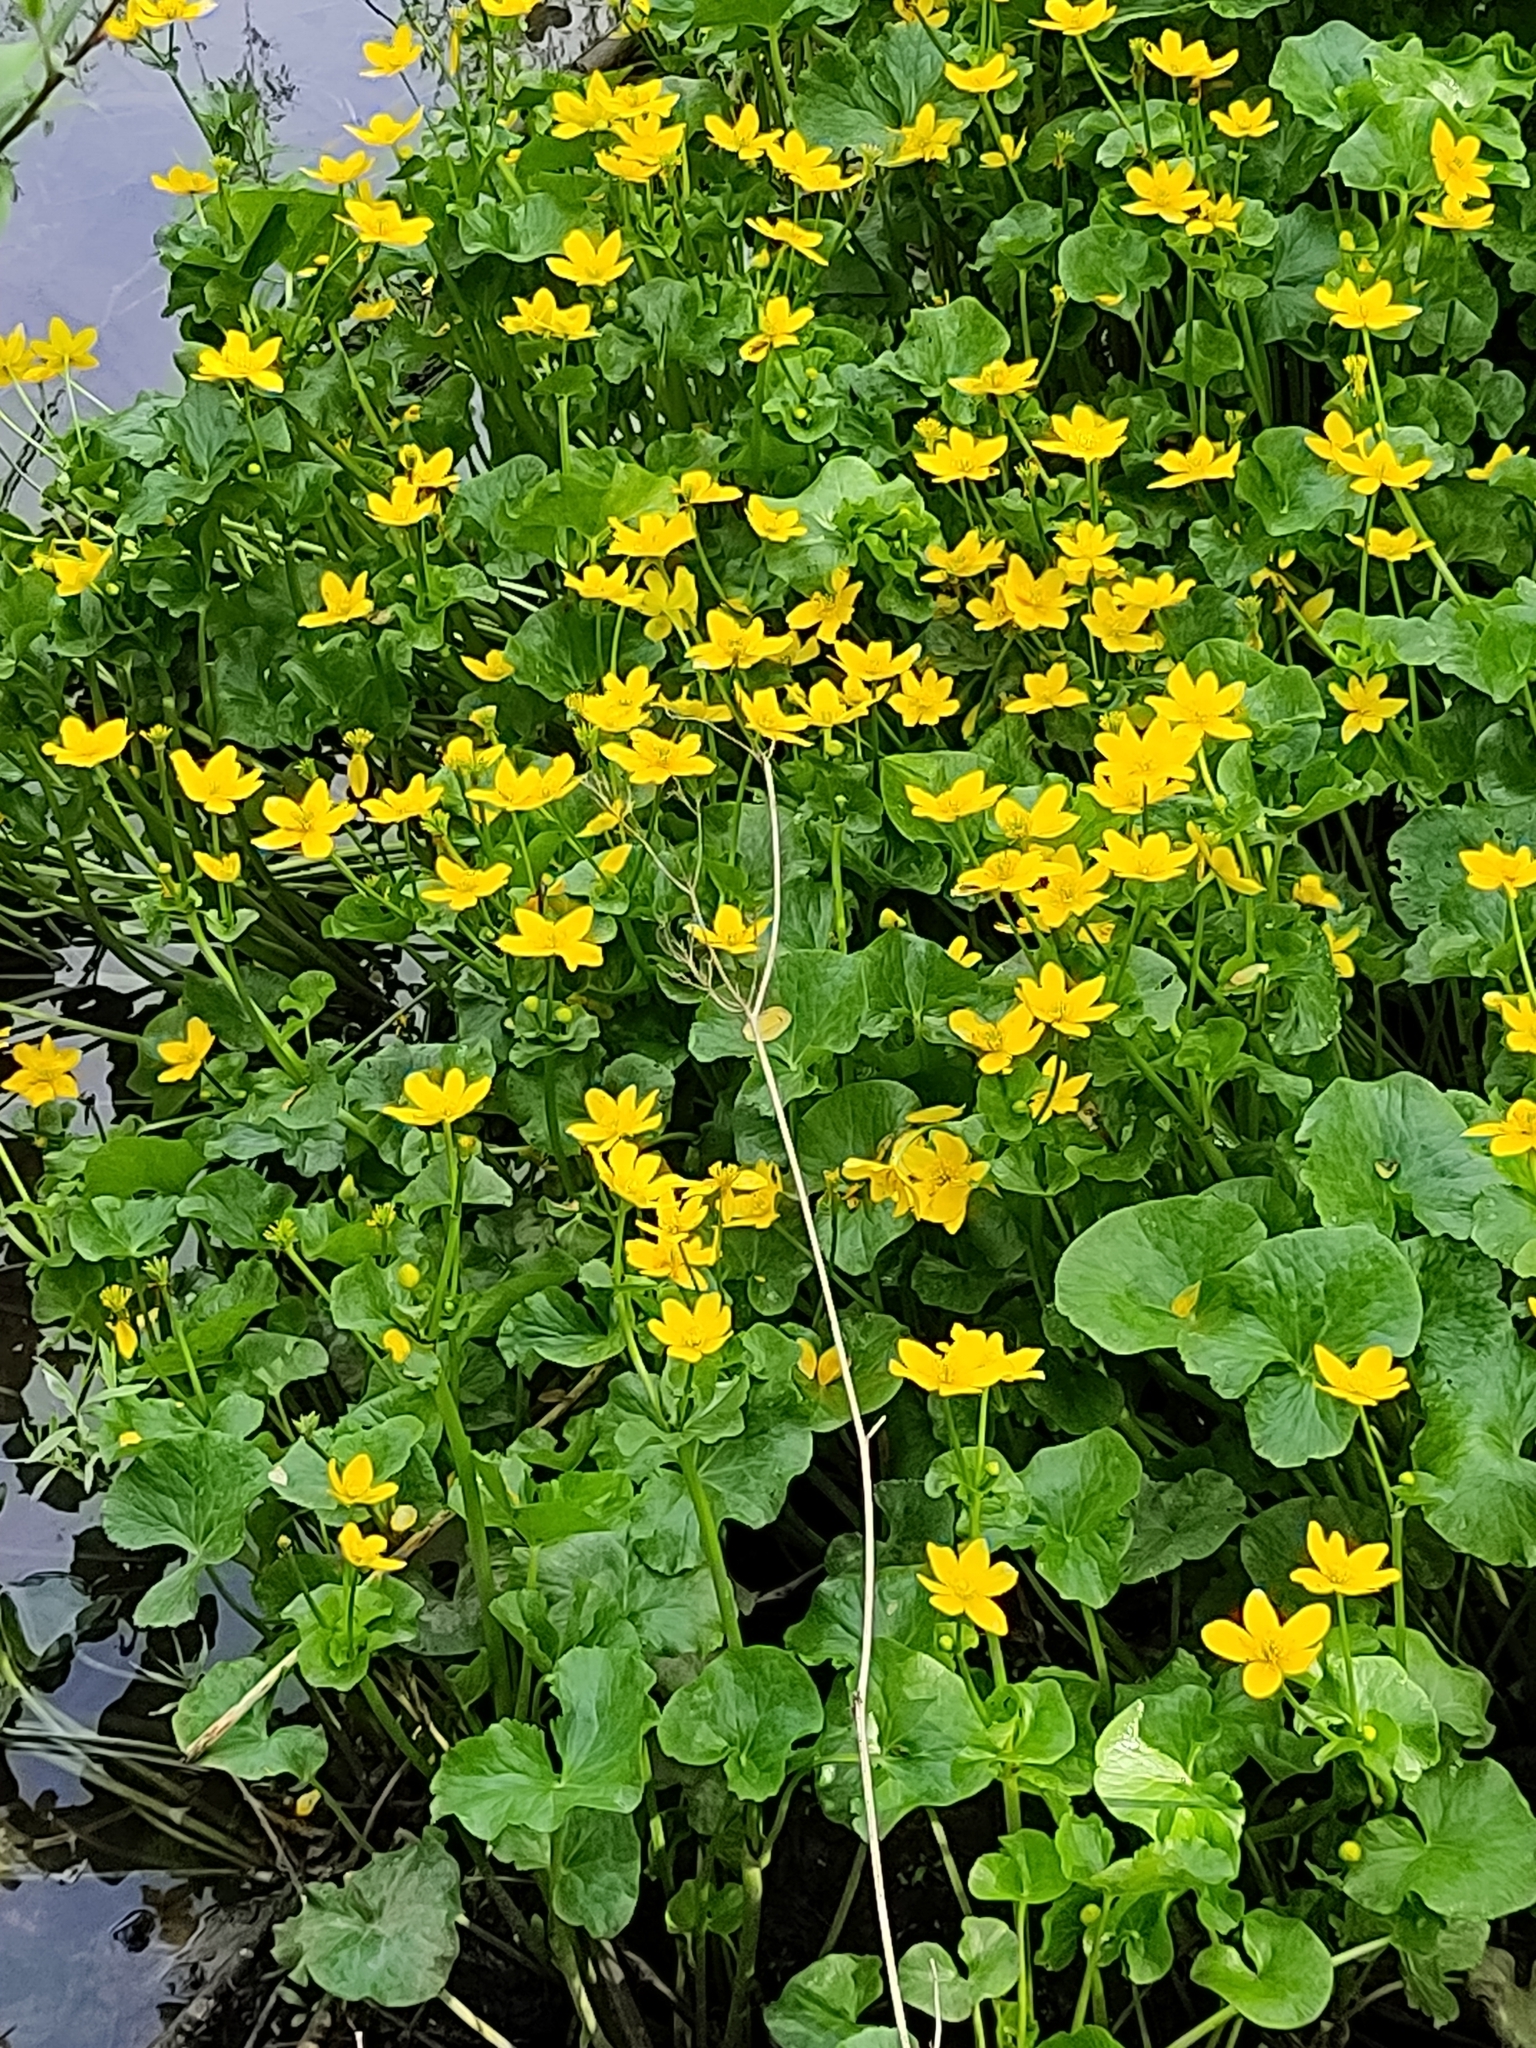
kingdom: Plantae
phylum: Tracheophyta
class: Magnoliopsida
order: Ranunculales
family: Ranunculaceae
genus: Caltha
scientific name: Caltha palustris
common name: Marsh marigold
